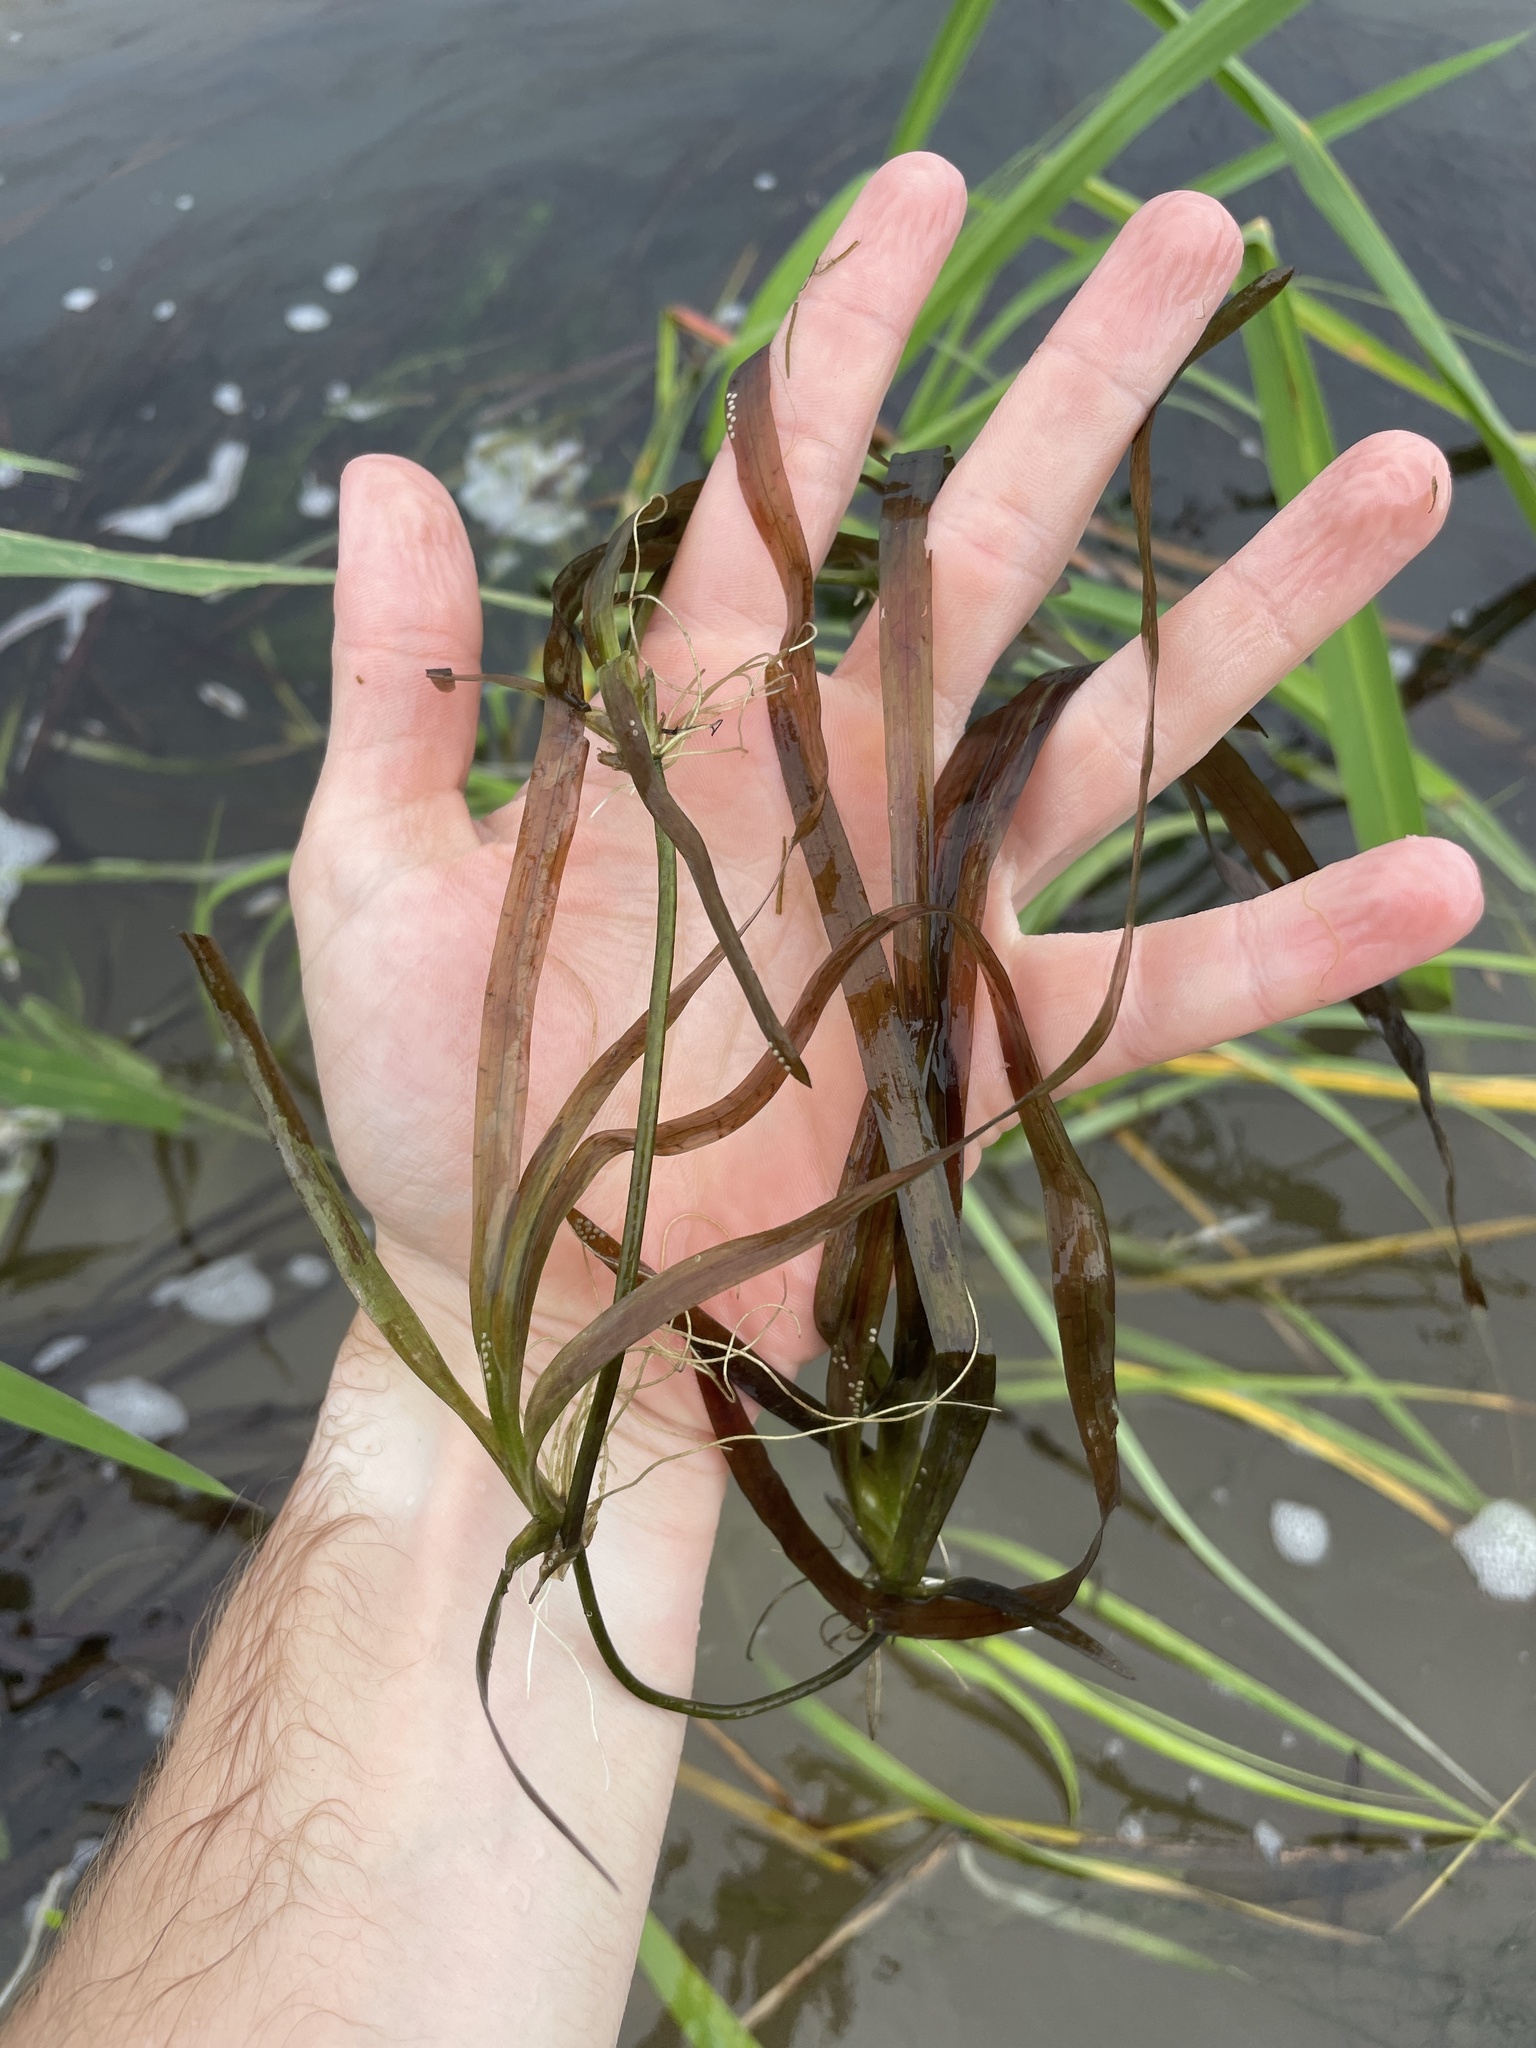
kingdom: Plantae
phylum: Tracheophyta
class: Liliopsida
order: Alismatales
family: Hydrocharitaceae
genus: Vallisneria
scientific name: Vallisneria americana
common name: American eelgrass
